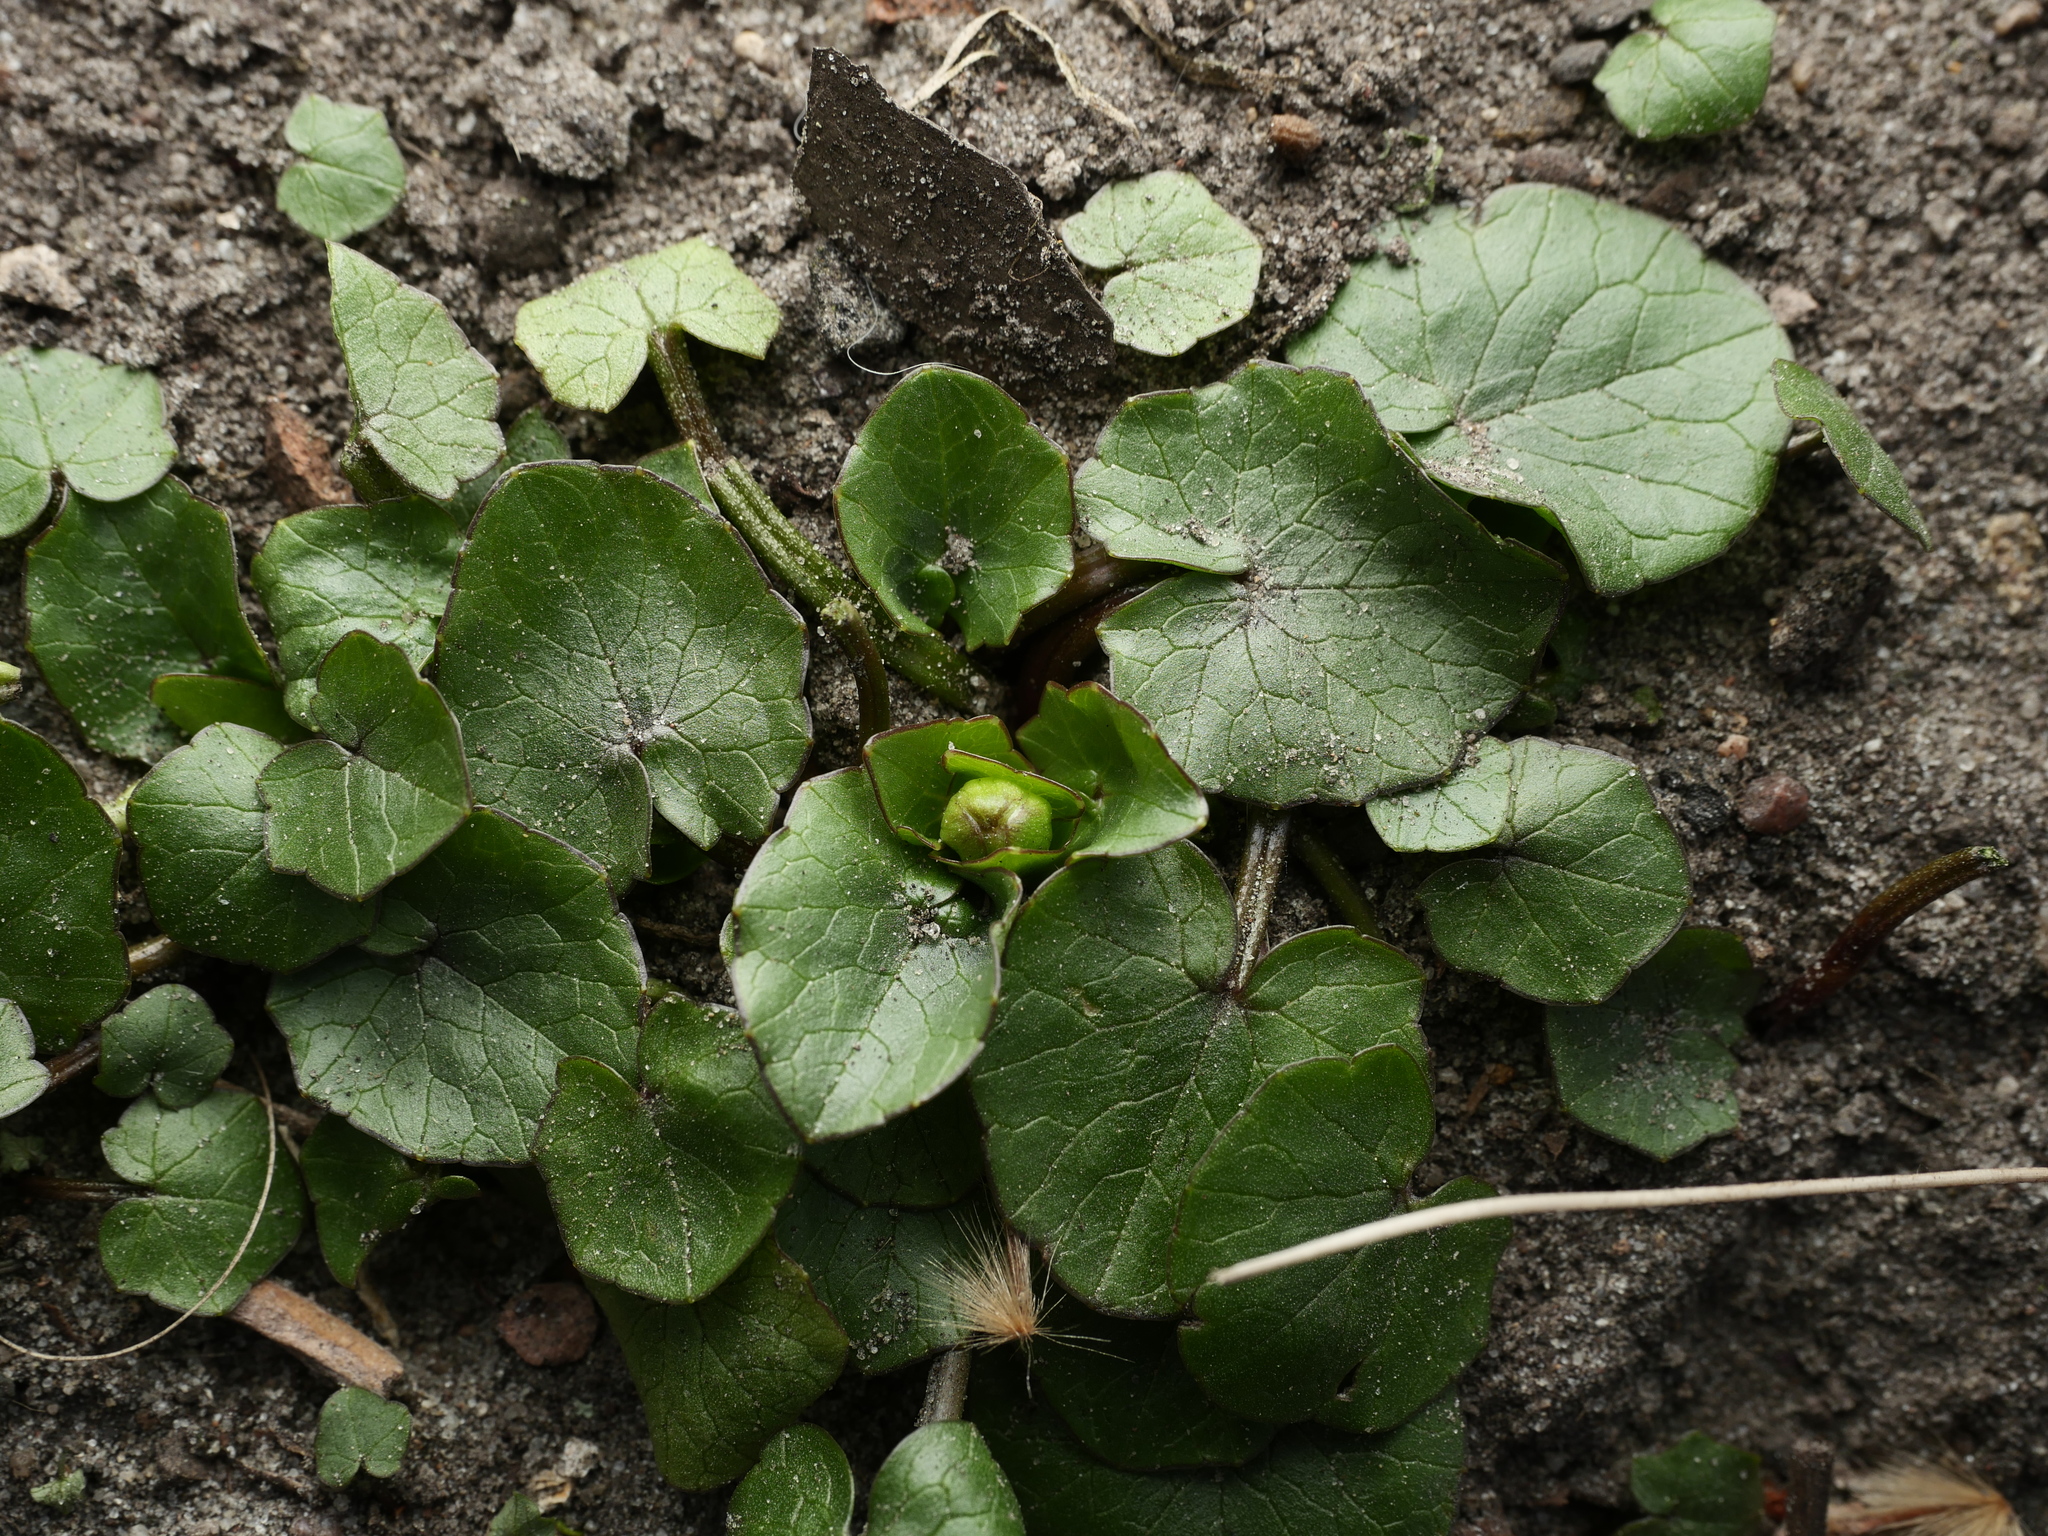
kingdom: Plantae
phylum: Tracheophyta
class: Magnoliopsida
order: Ranunculales
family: Ranunculaceae
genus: Ficaria
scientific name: Ficaria verna
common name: Lesser celandine
